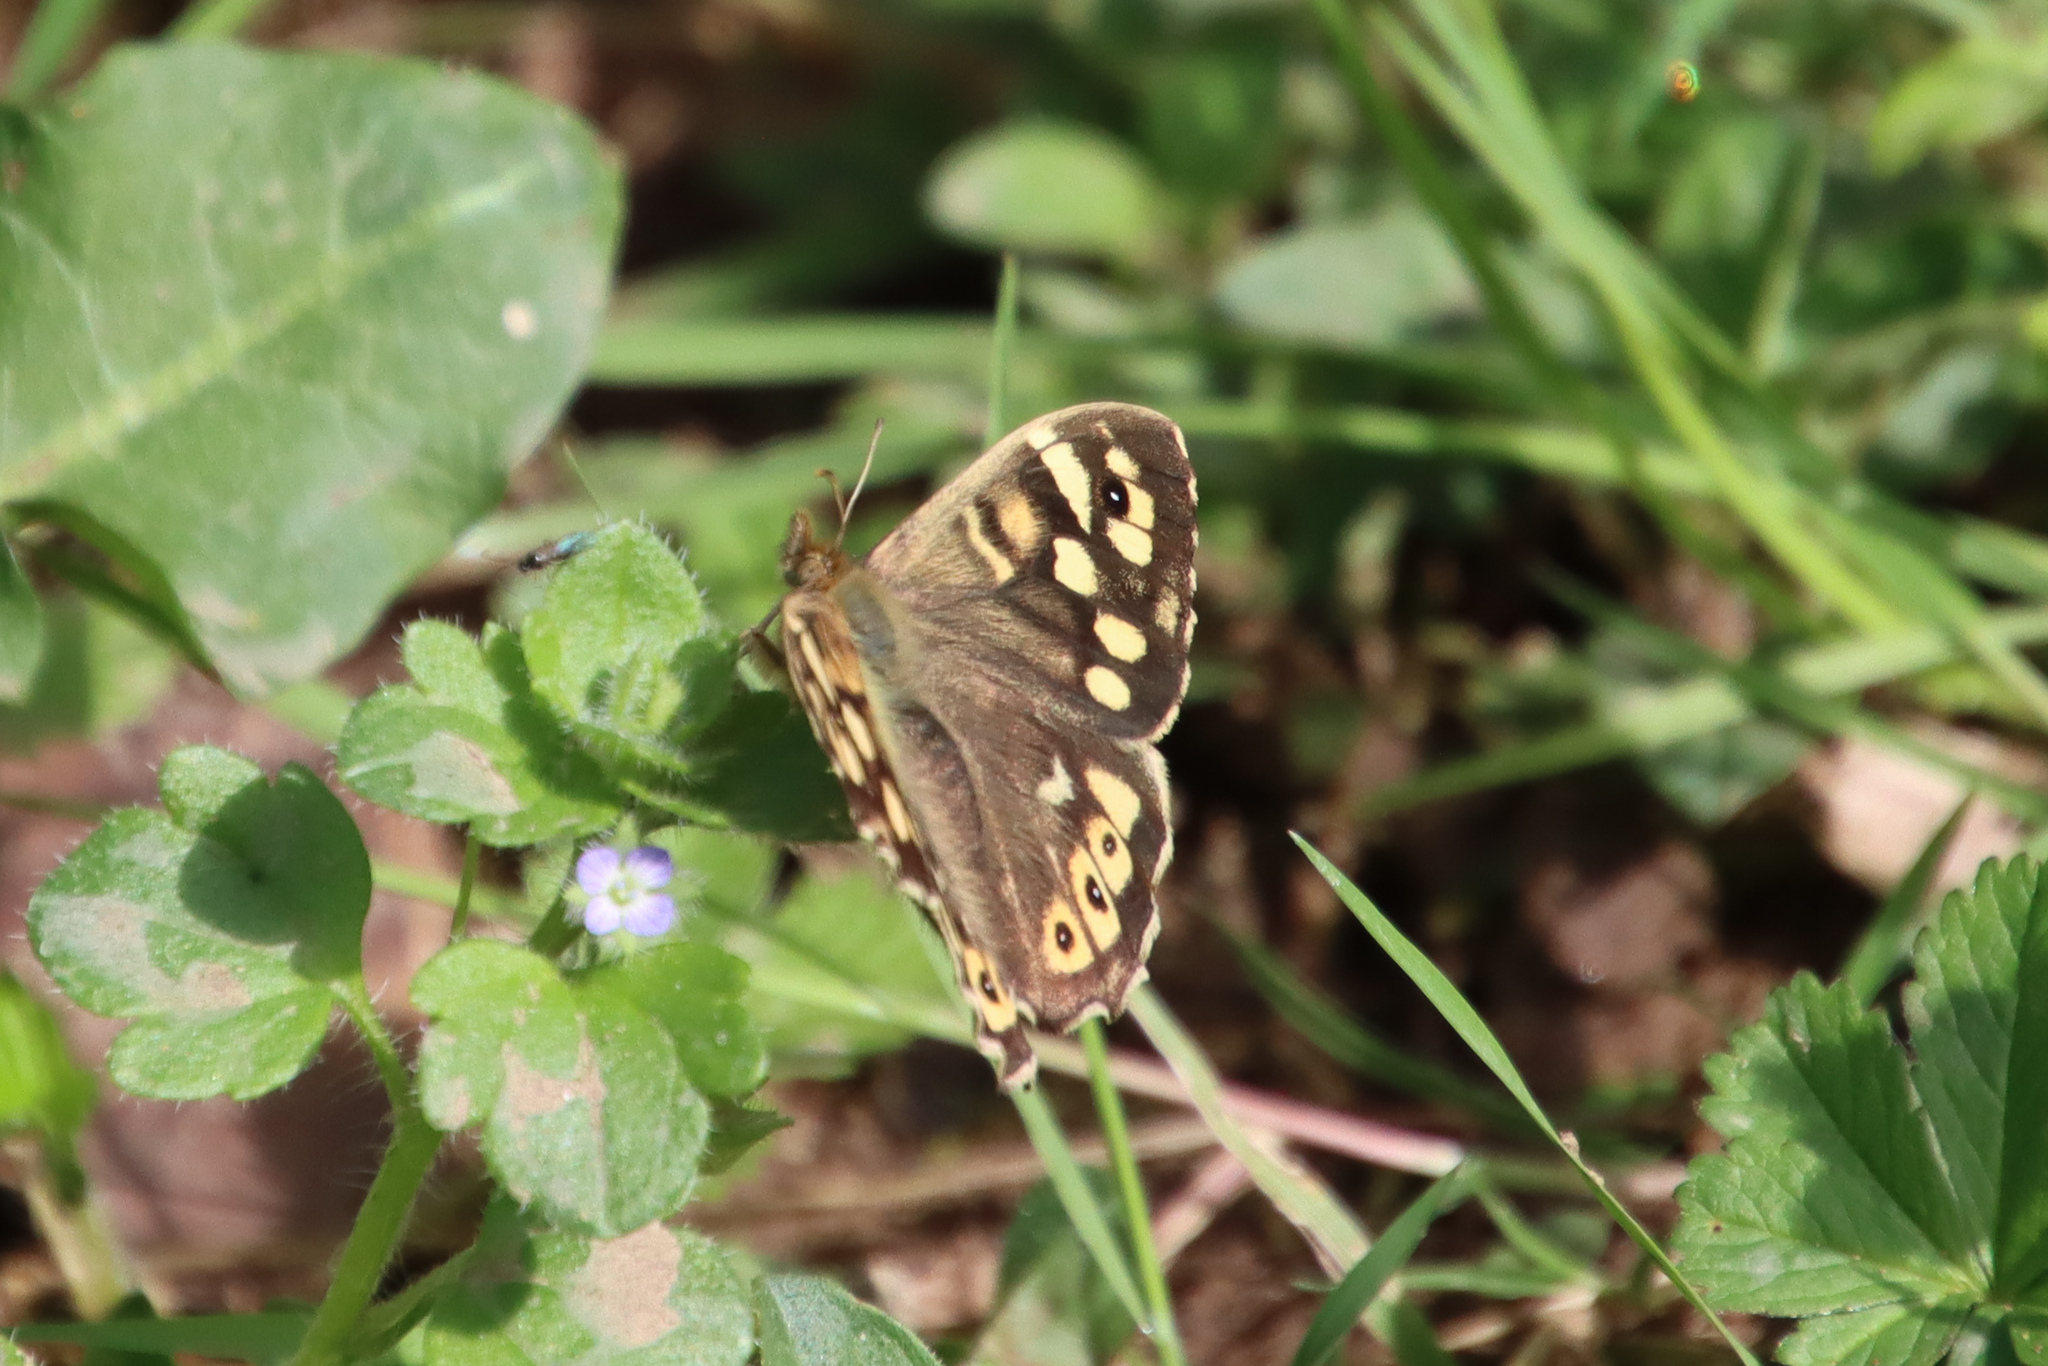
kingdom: Animalia
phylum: Arthropoda
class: Insecta
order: Lepidoptera
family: Nymphalidae
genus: Pararge
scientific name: Pararge aegeria
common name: Speckled wood
